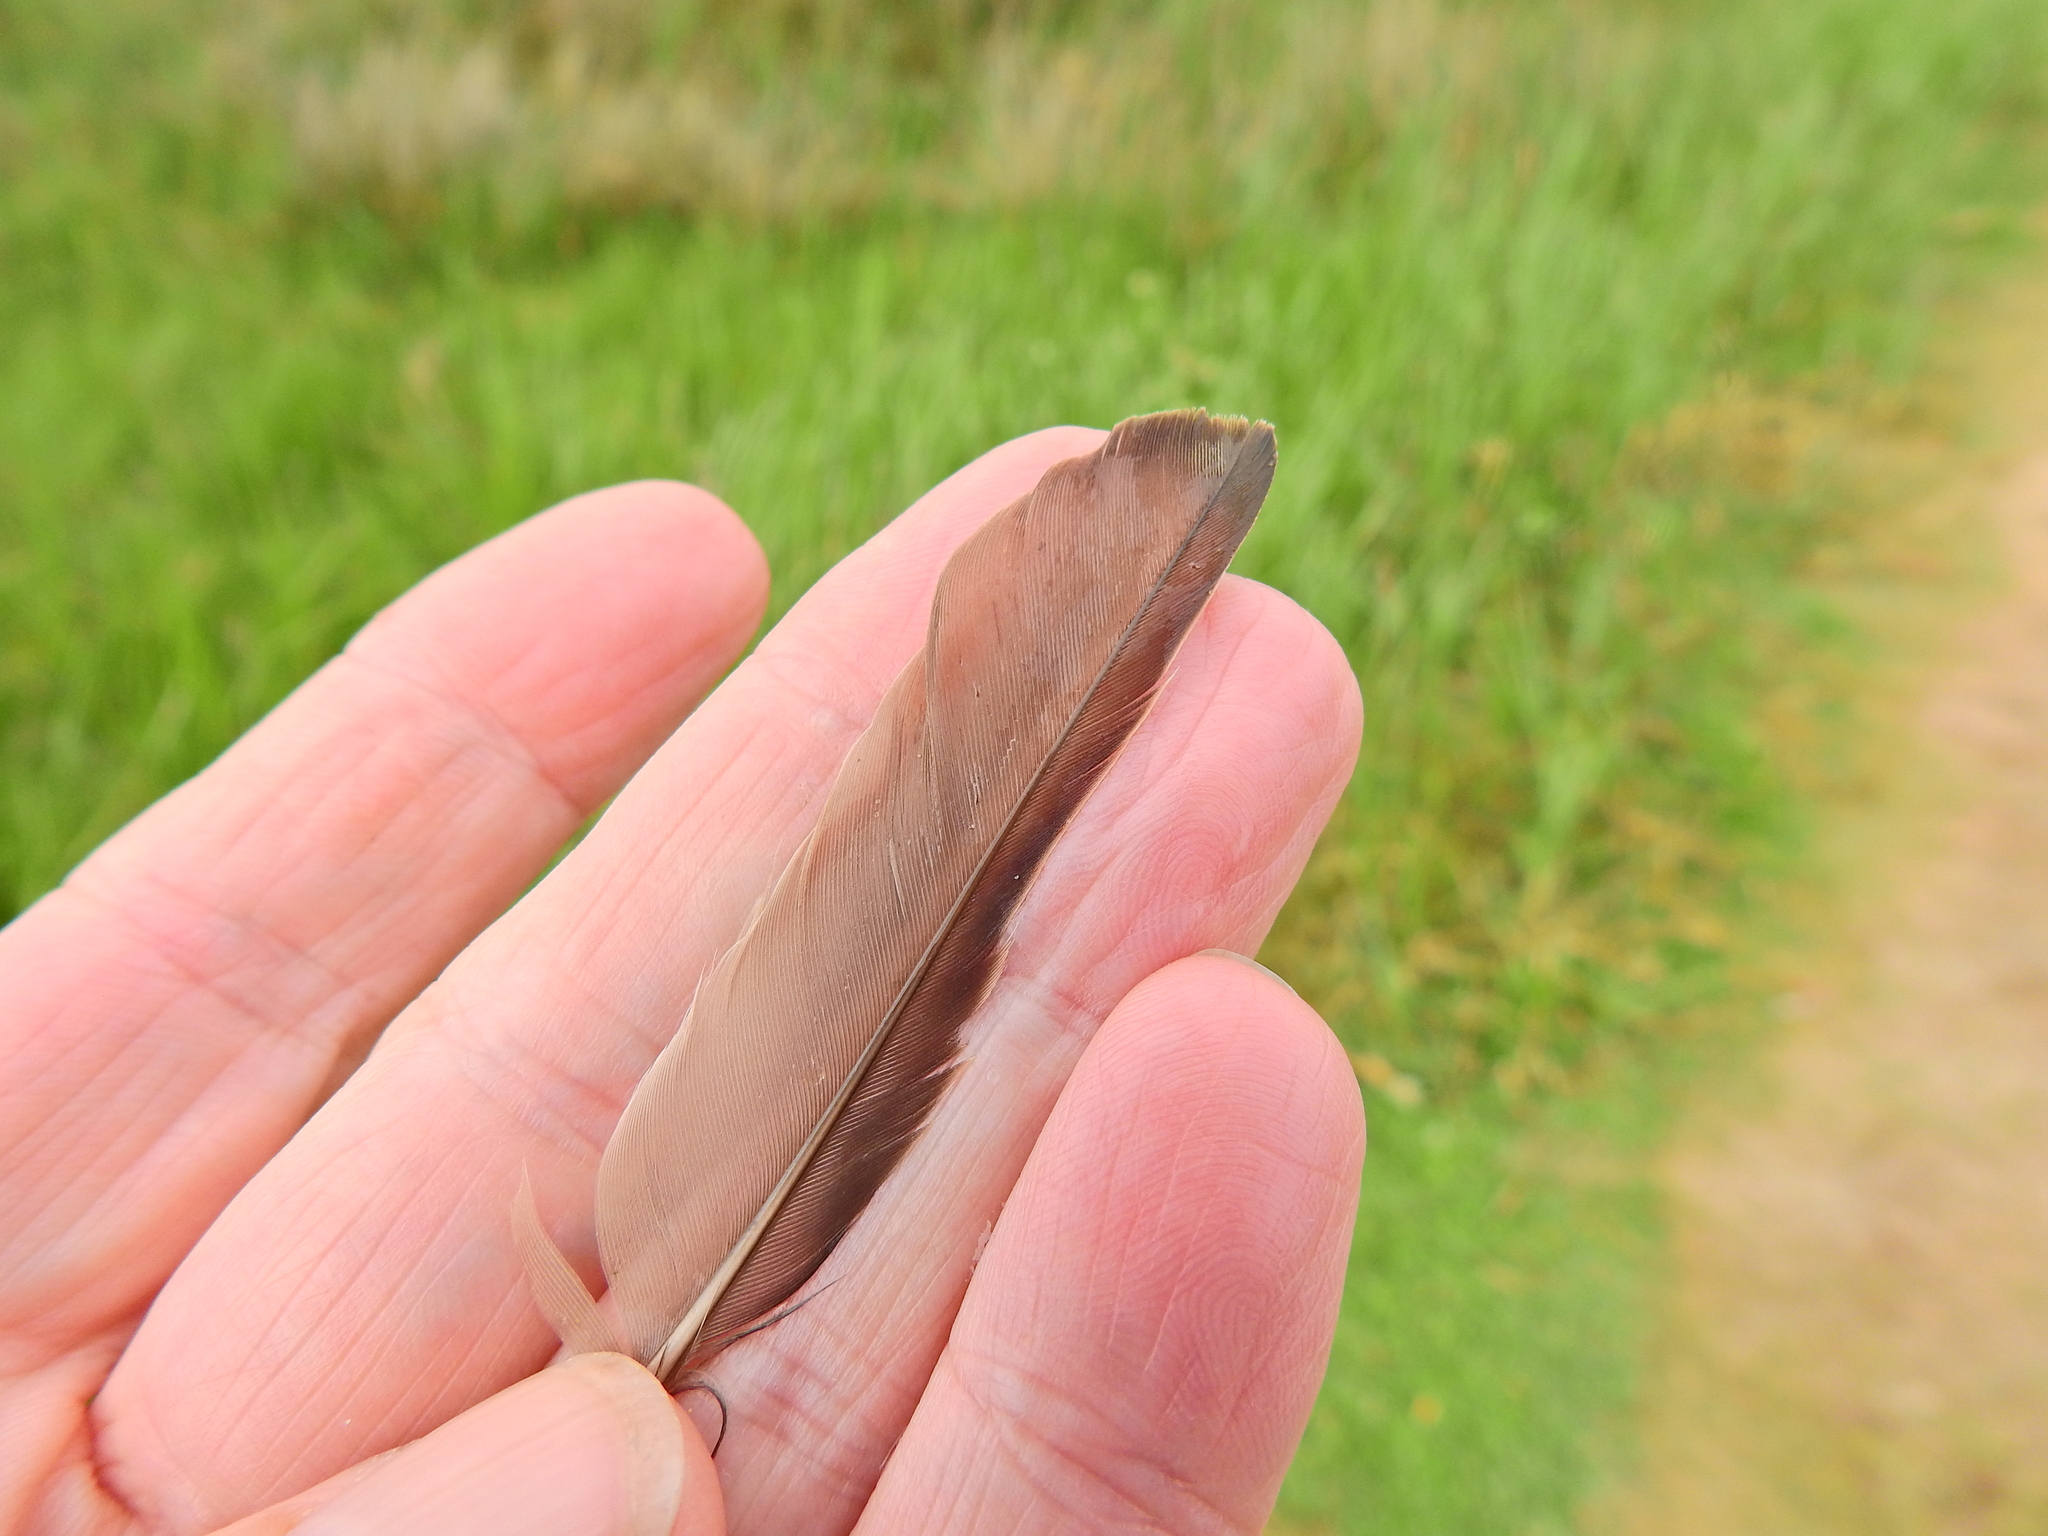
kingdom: Animalia
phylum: Chordata
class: Aves
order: Passeriformes
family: Sturnidae
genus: Sturnus
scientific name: Sturnus vulgaris
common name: Common starling
